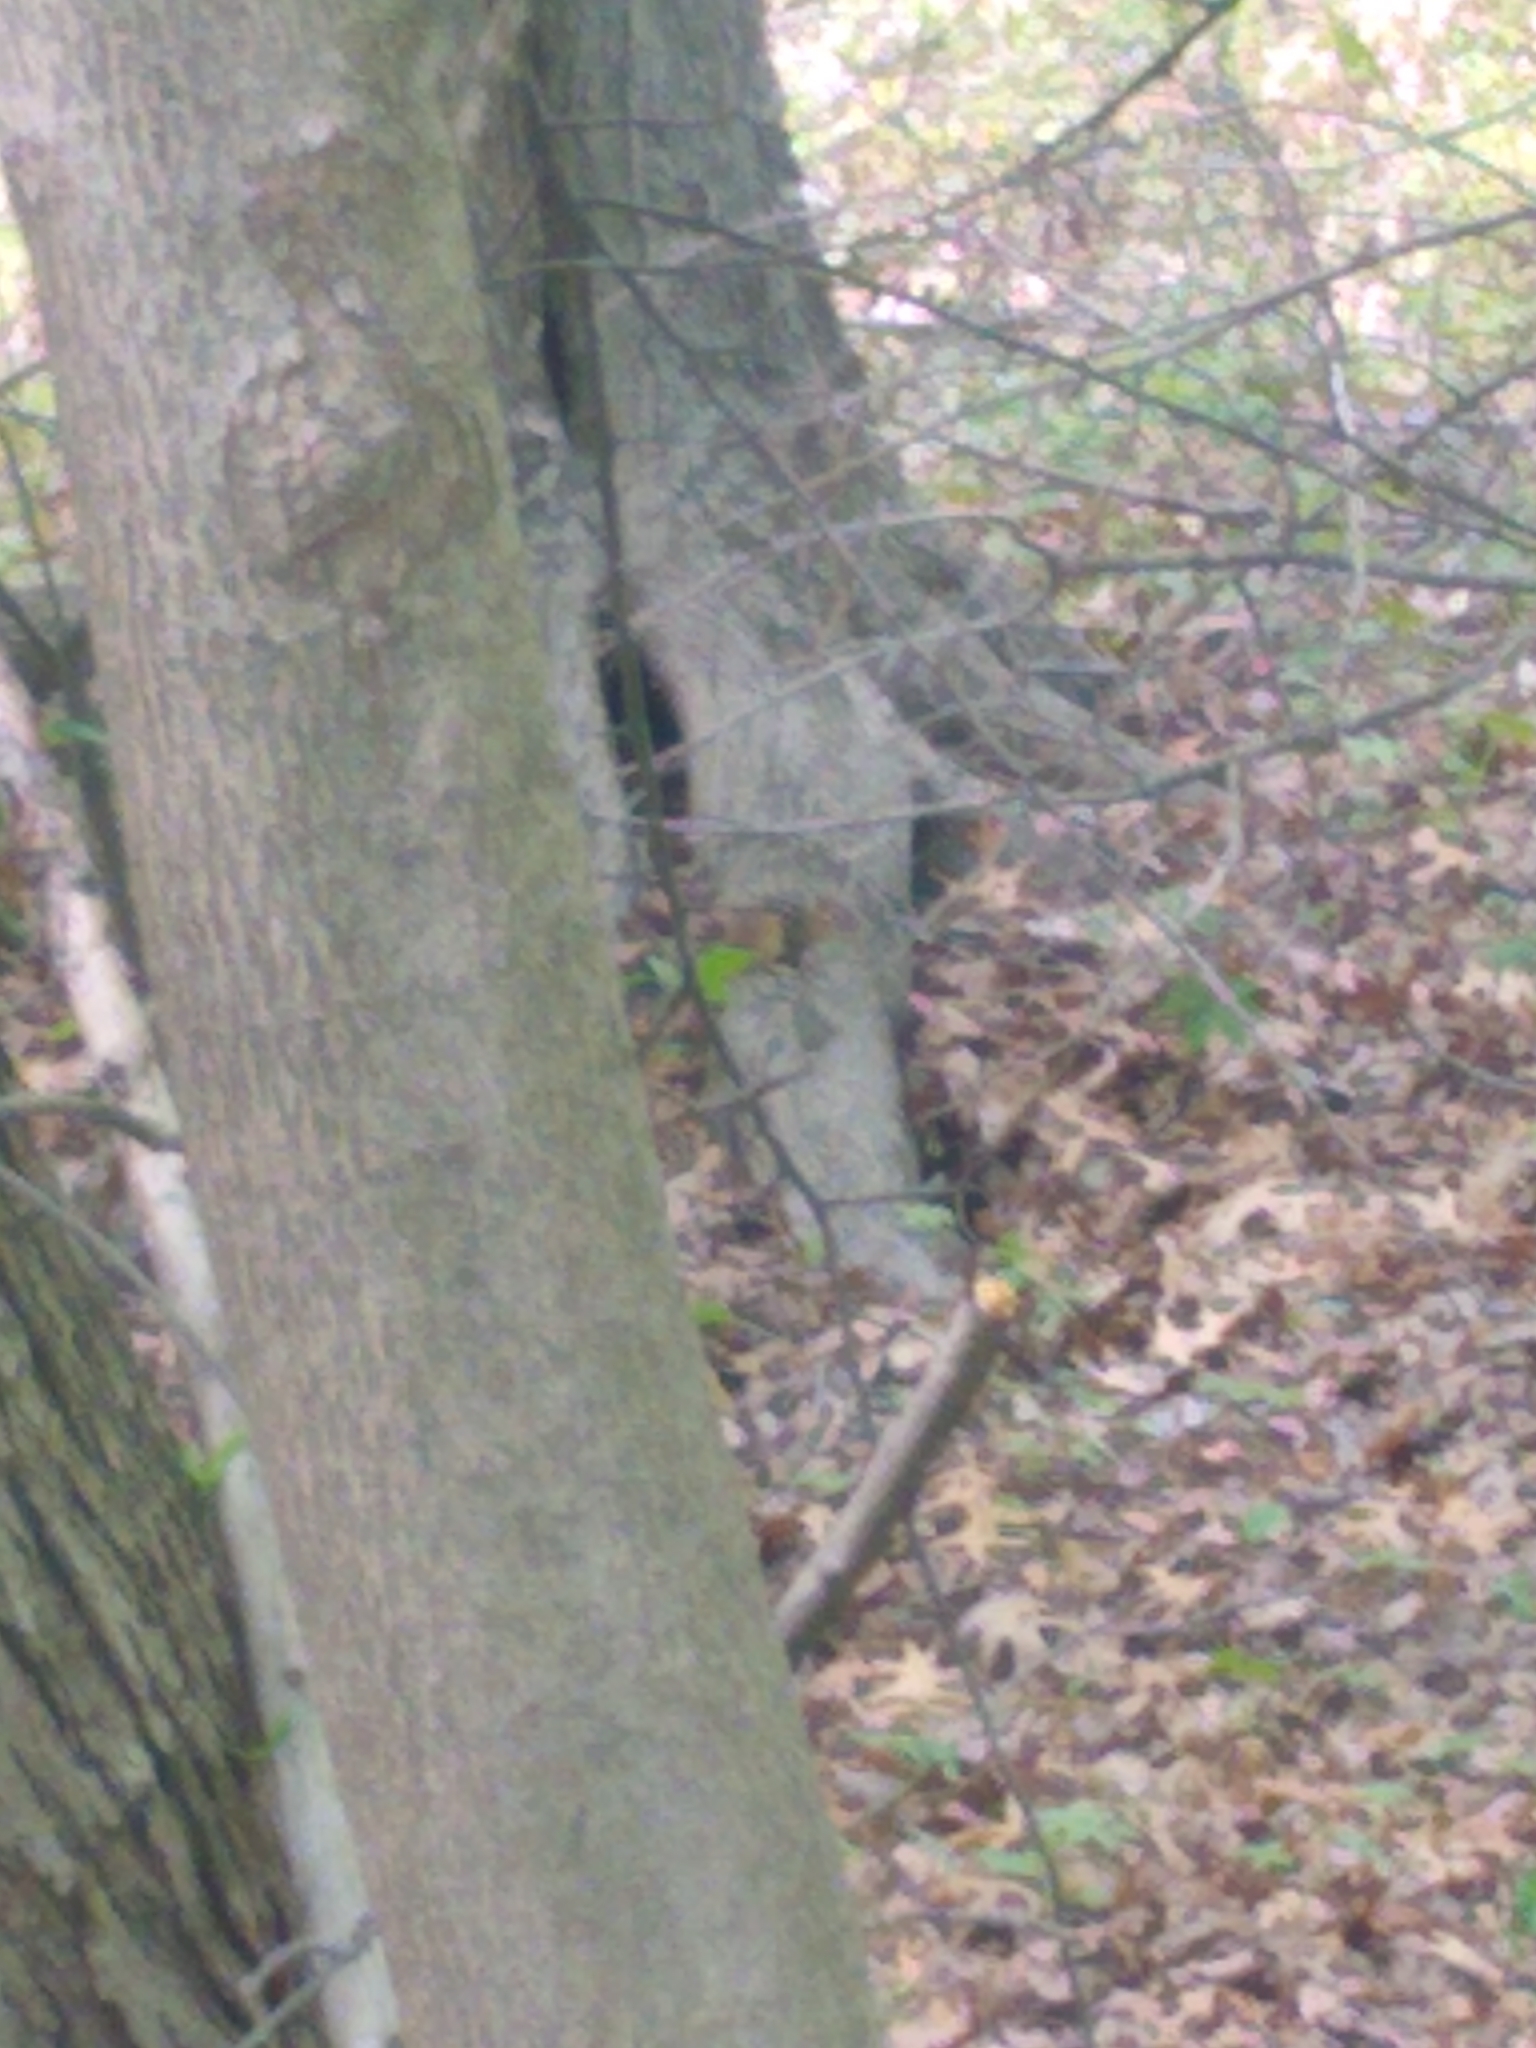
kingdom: Animalia
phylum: Chordata
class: Mammalia
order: Rodentia
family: Sciuridae
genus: Tamias
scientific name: Tamias striatus
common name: Eastern chipmunk
